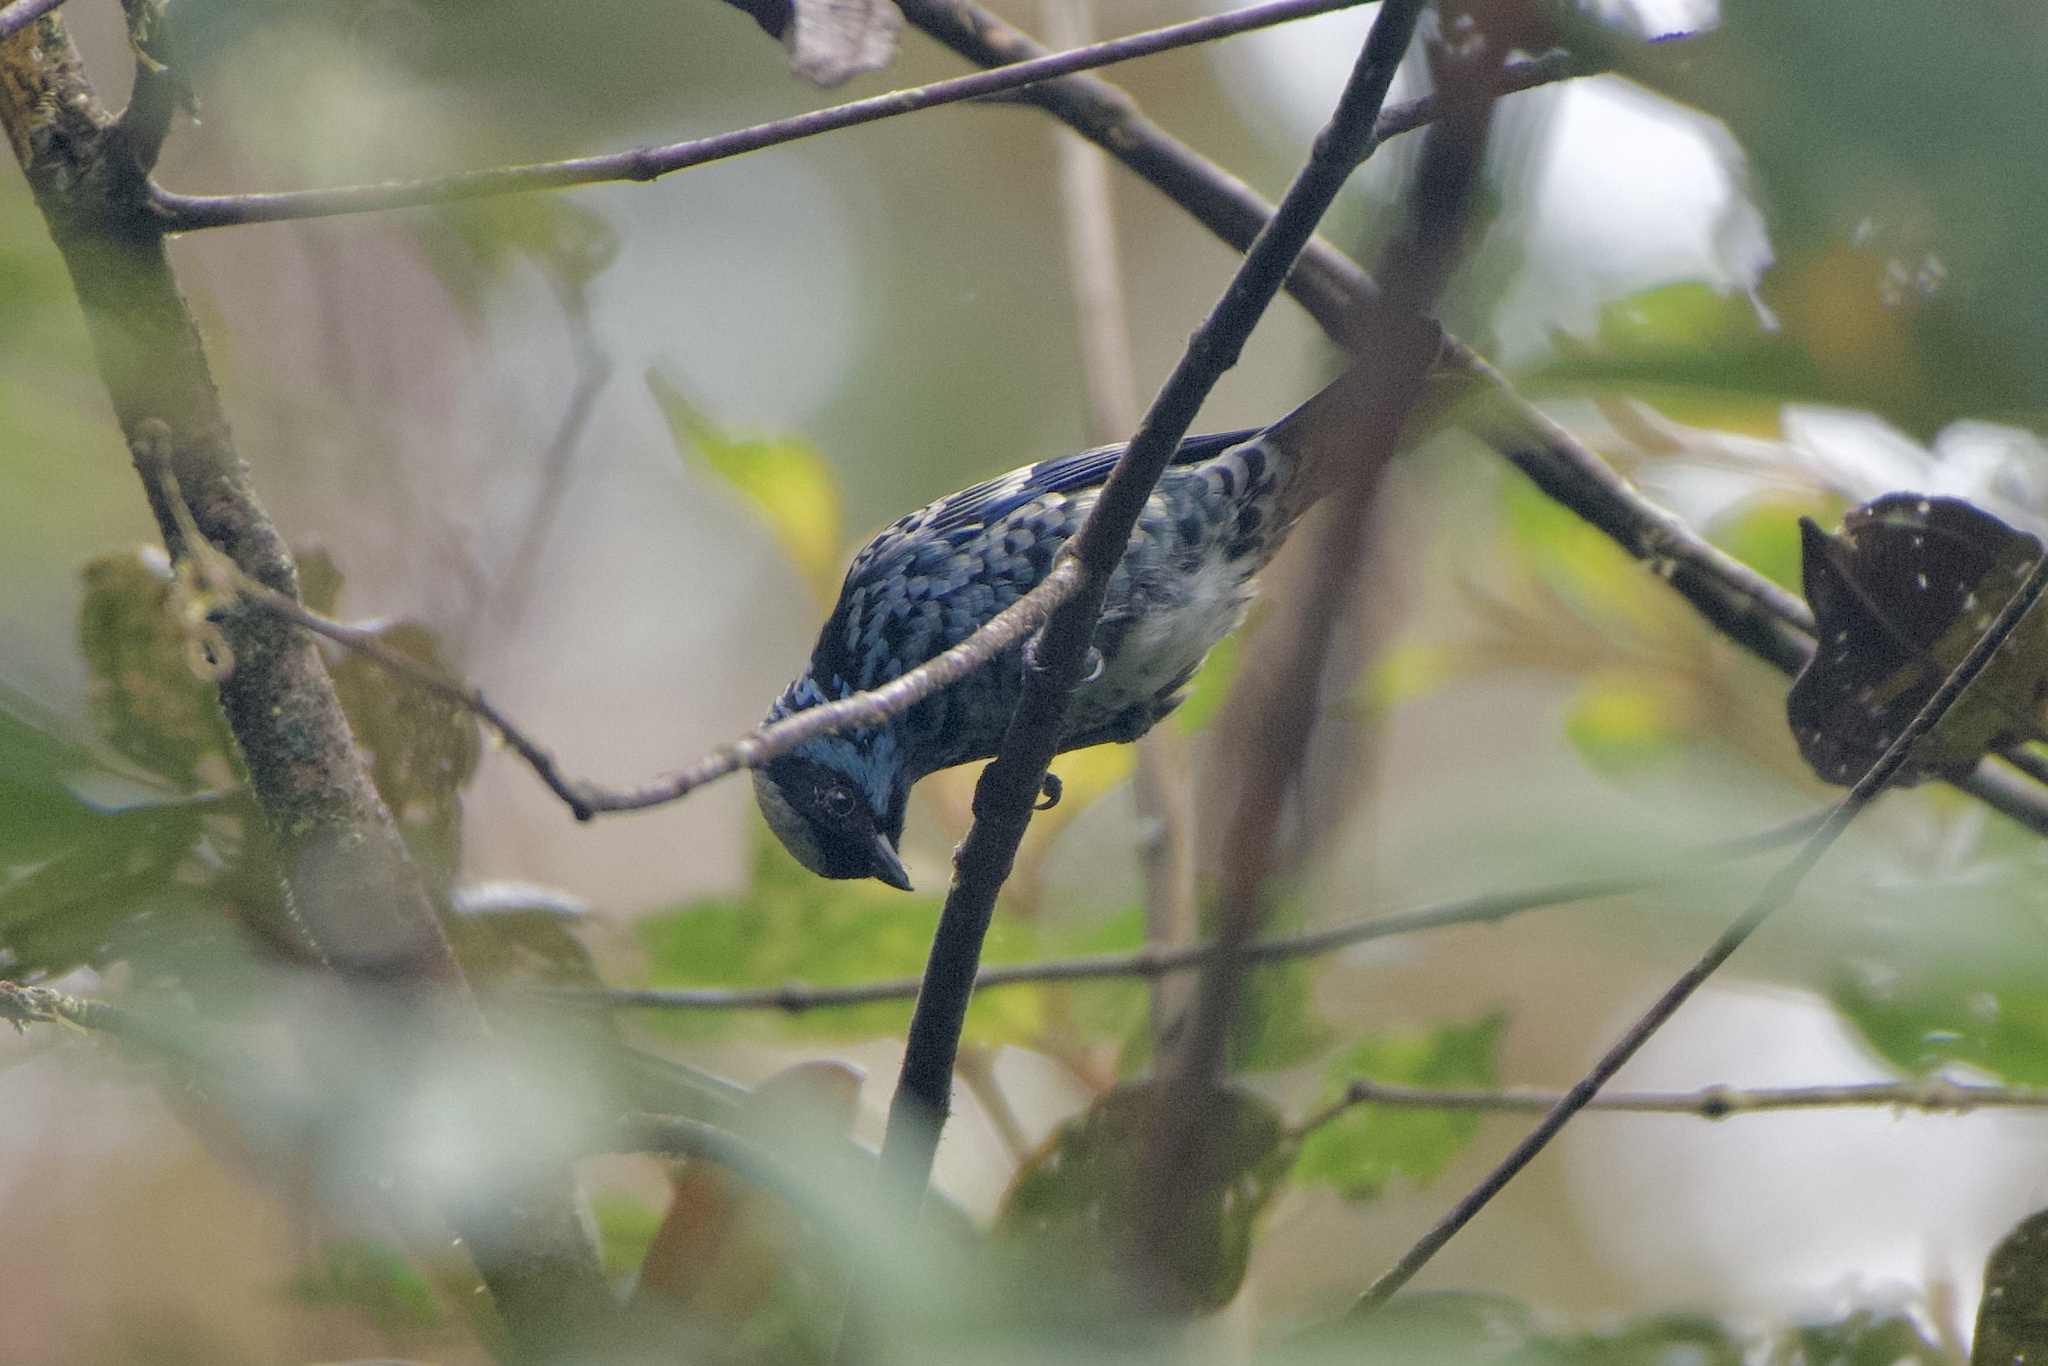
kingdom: Animalia
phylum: Chordata
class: Aves
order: Passeriformes
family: Thraupidae
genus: Tangara
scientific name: Tangara nigroviridis
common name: Beryl-spangled tanager
